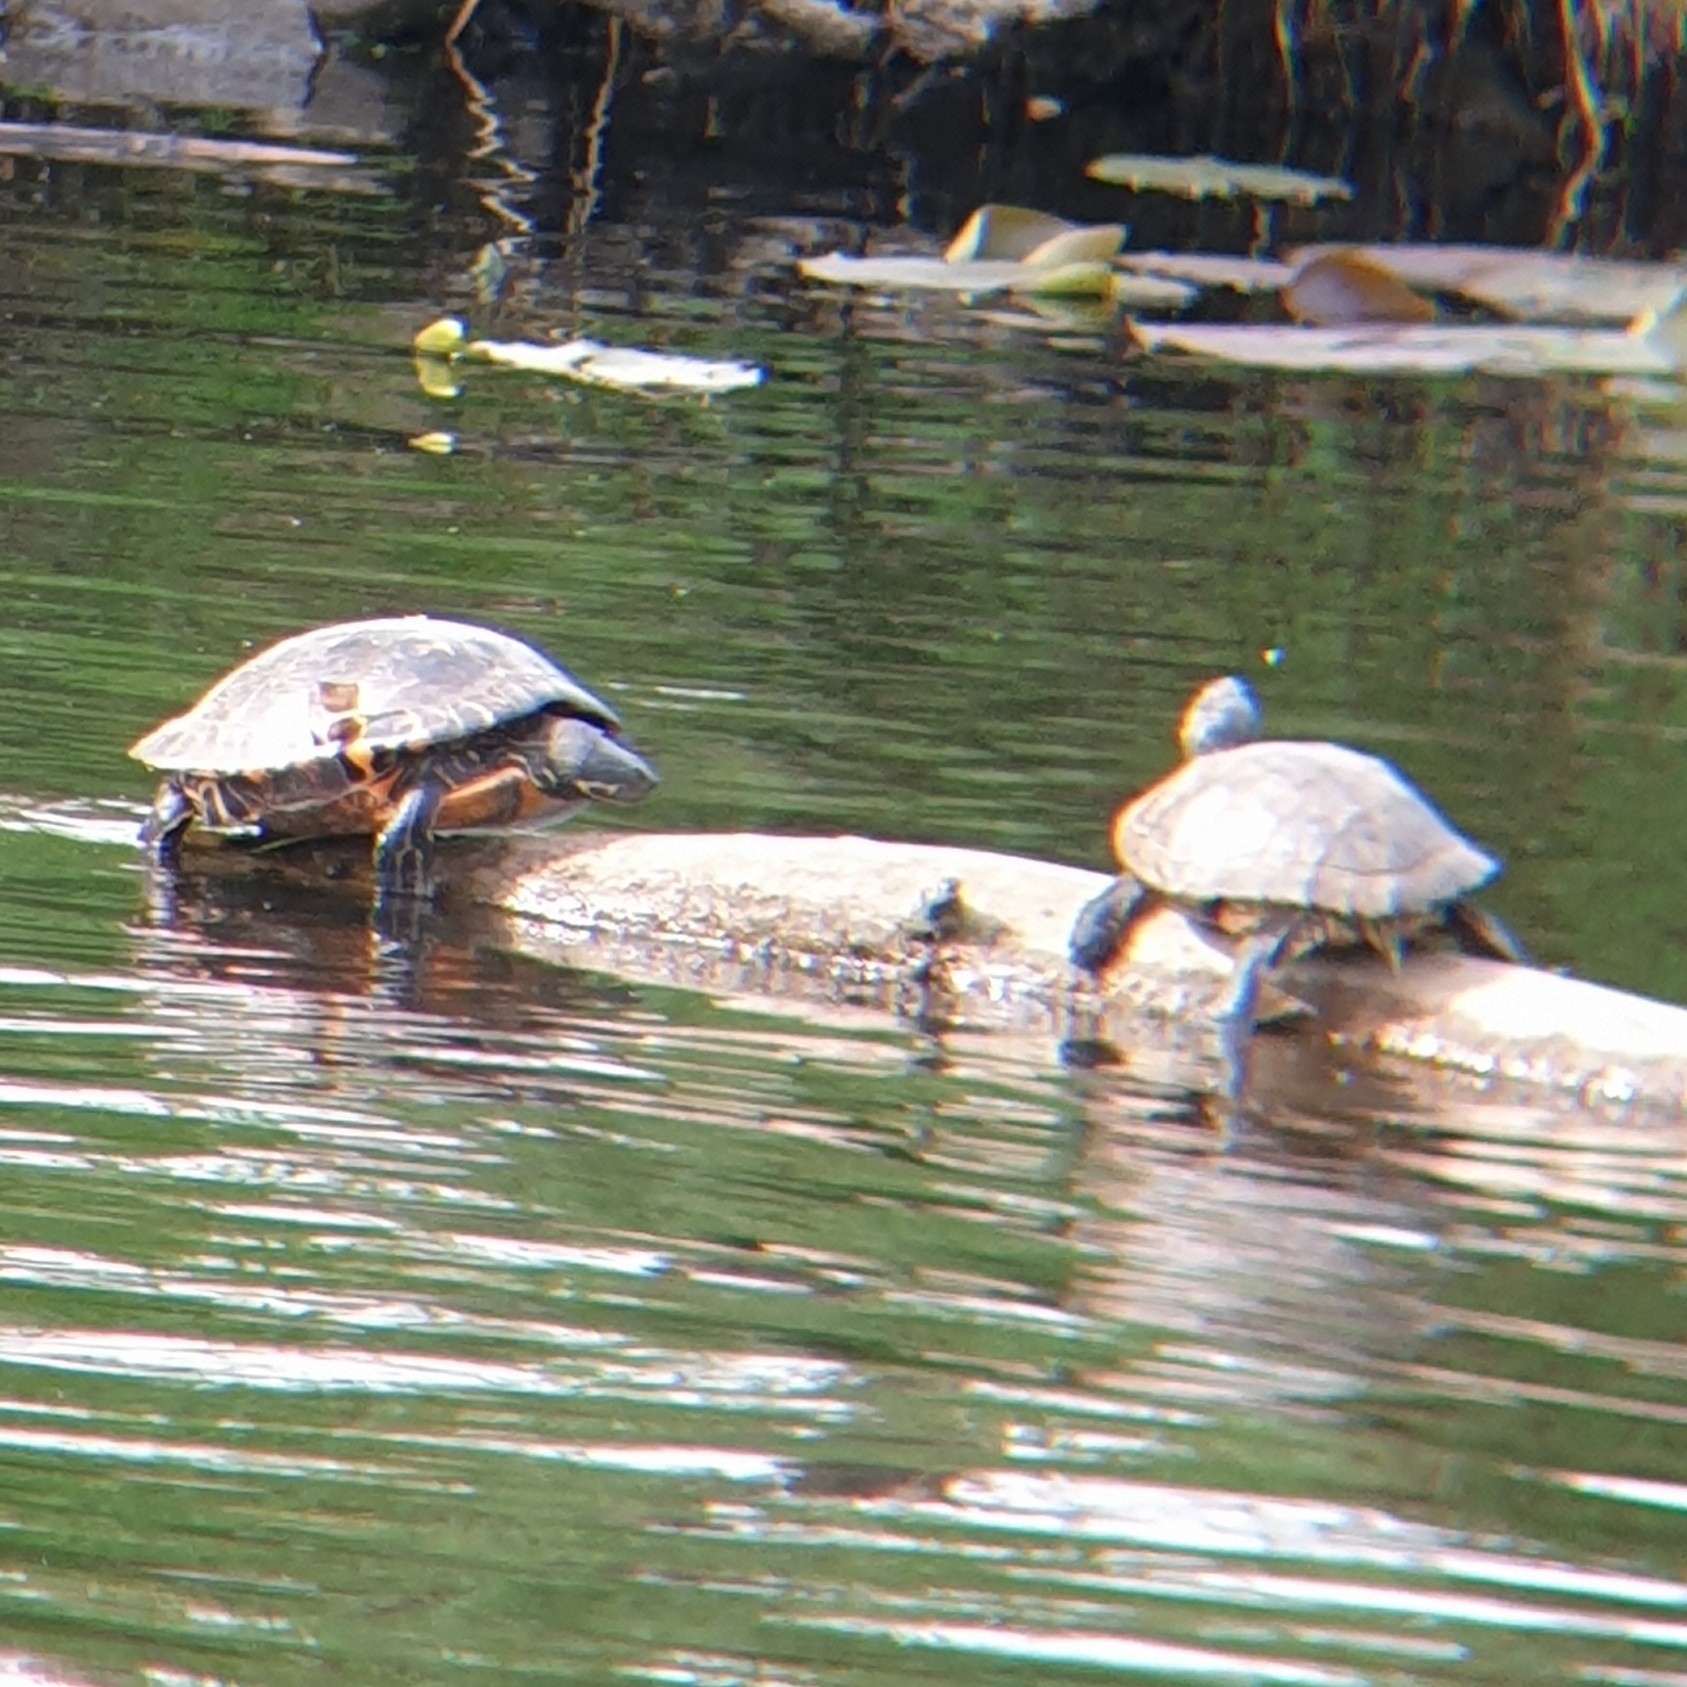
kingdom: Animalia
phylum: Chordata
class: Testudines
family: Emydidae
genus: Trachemys
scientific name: Trachemys scripta
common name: Slider
